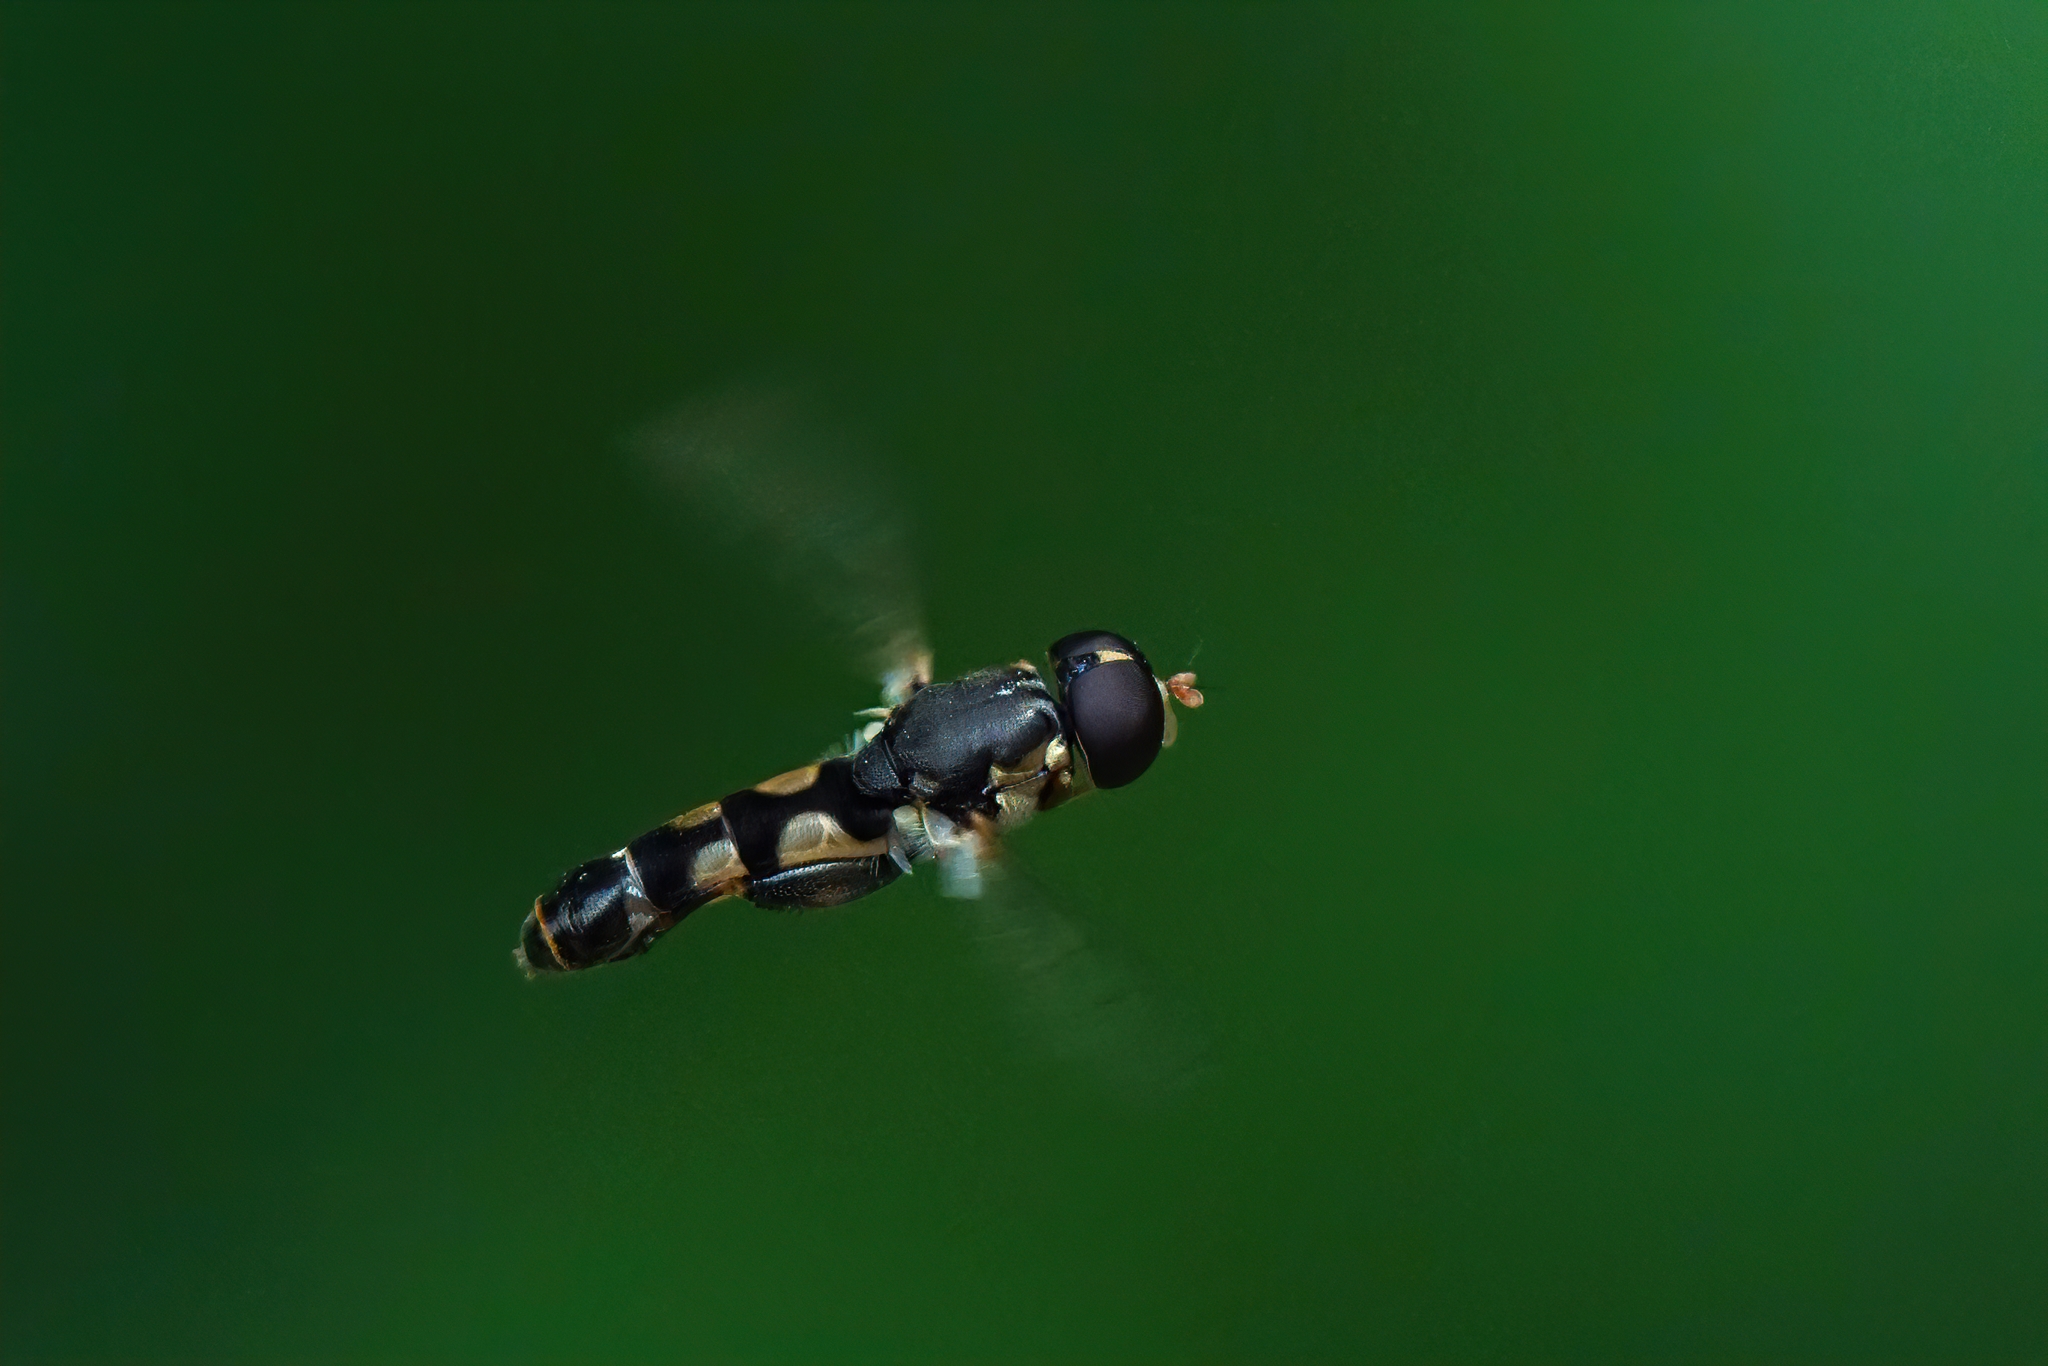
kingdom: Animalia
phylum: Arthropoda
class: Insecta
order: Diptera
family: Syrphidae
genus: Syritta
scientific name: Syritta pipiens
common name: Hover fly
